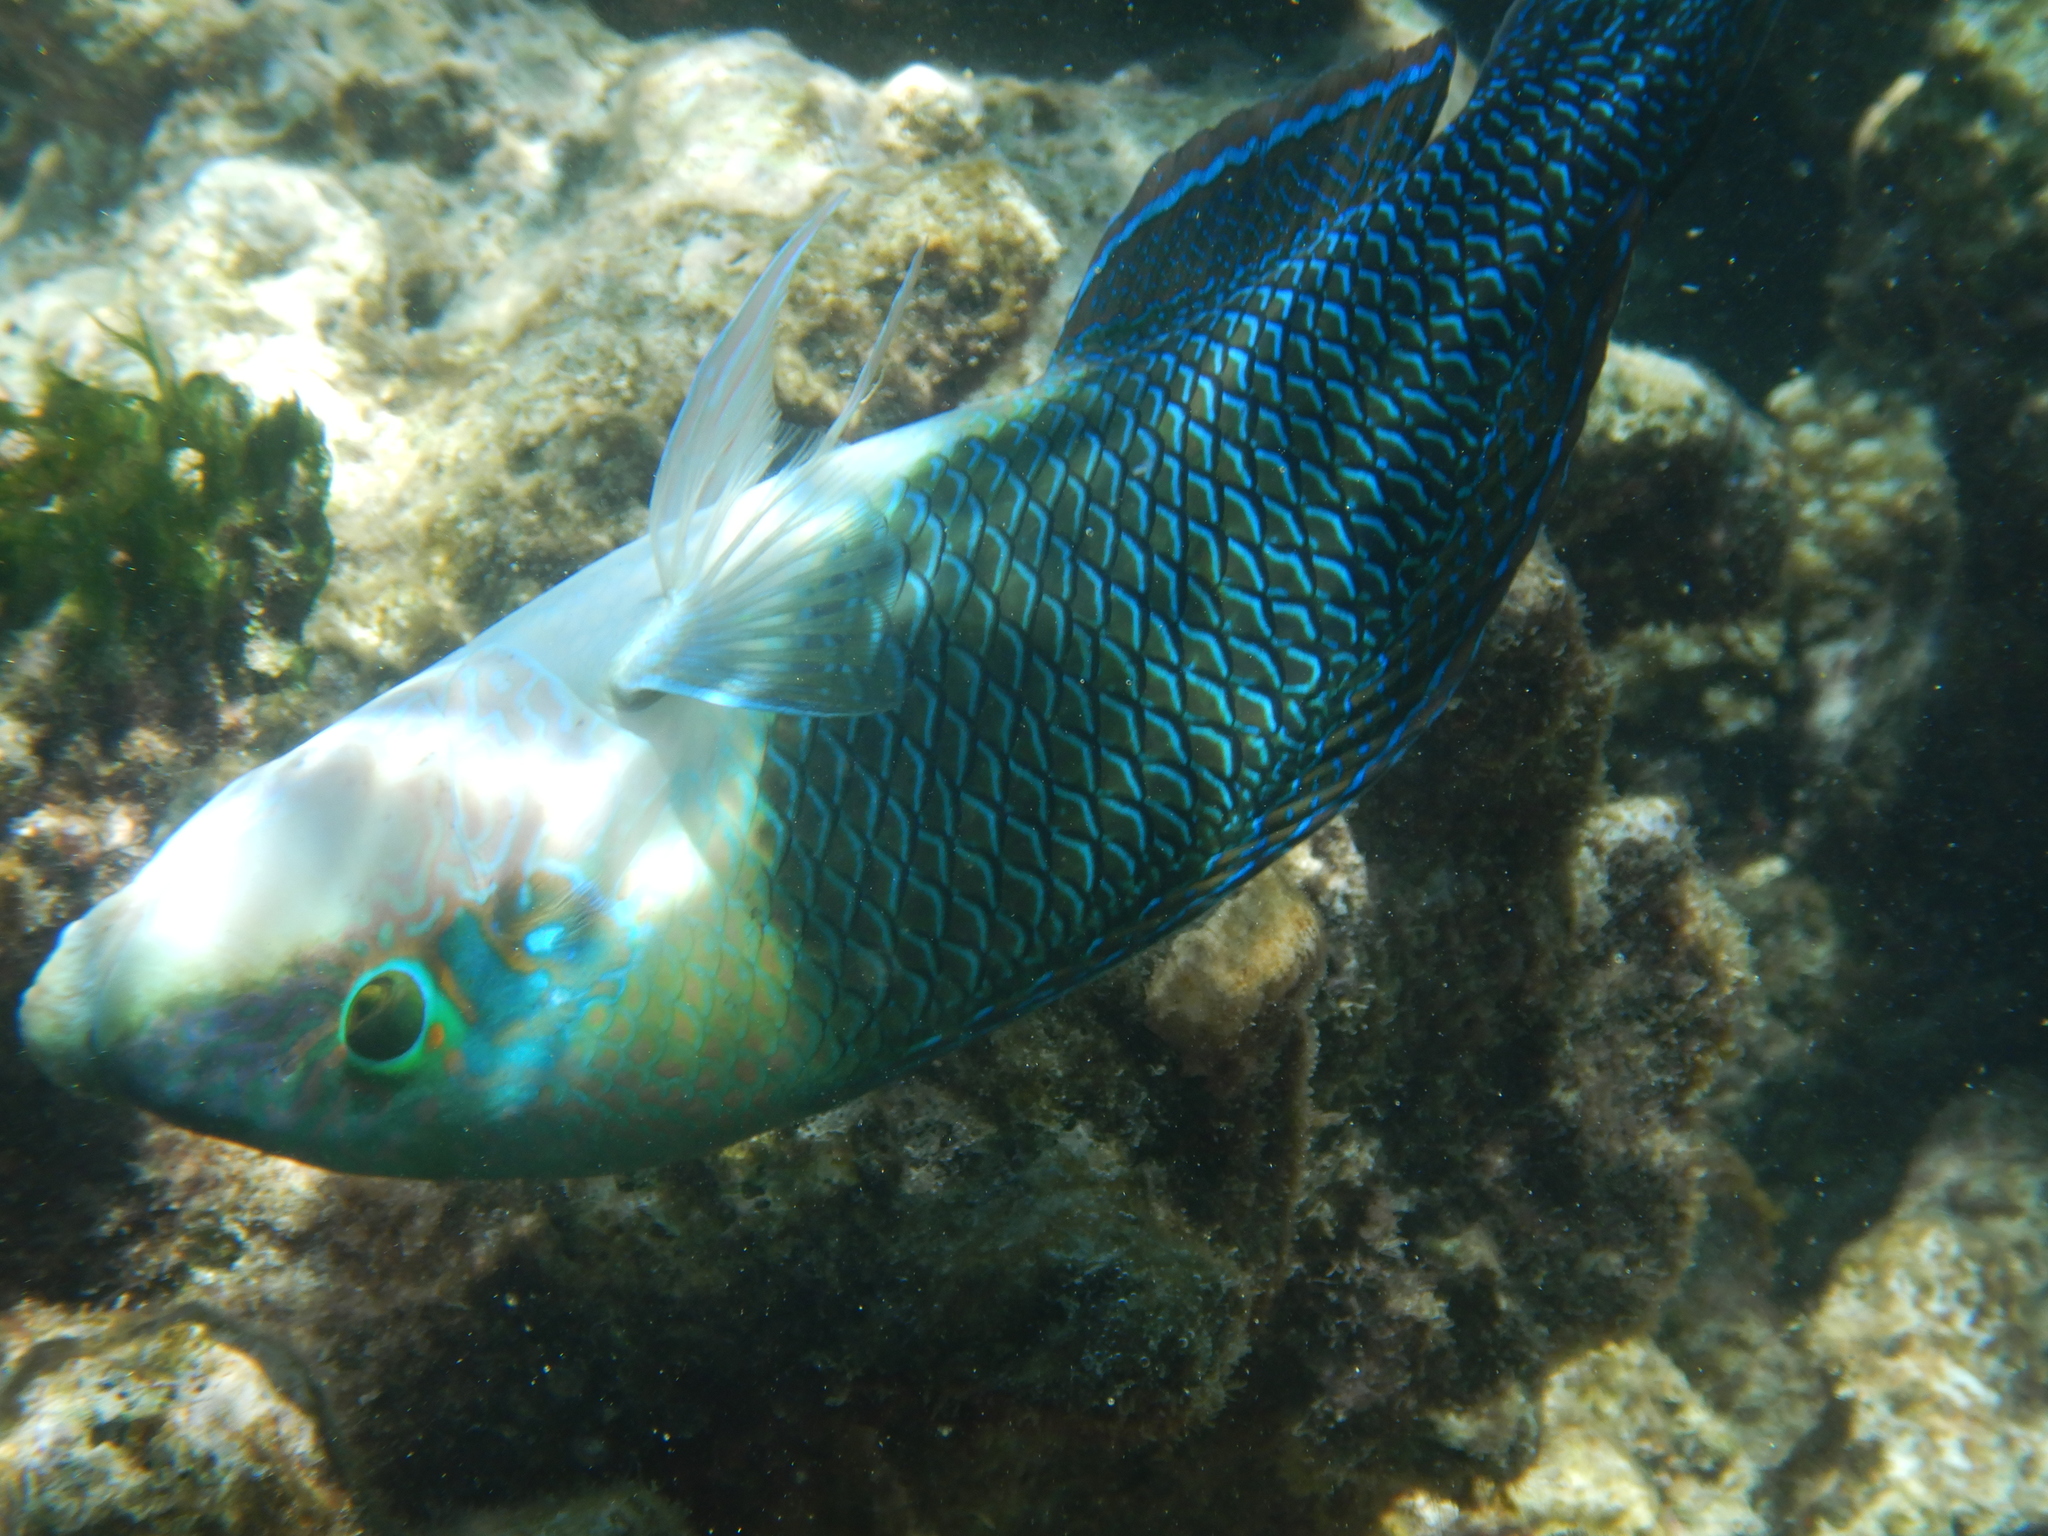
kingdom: Animalia
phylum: Chordata
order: Perciformes
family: Labridae
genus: Hemigymnus
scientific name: Hemigymnus melapterus
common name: Blackeye thicklip
